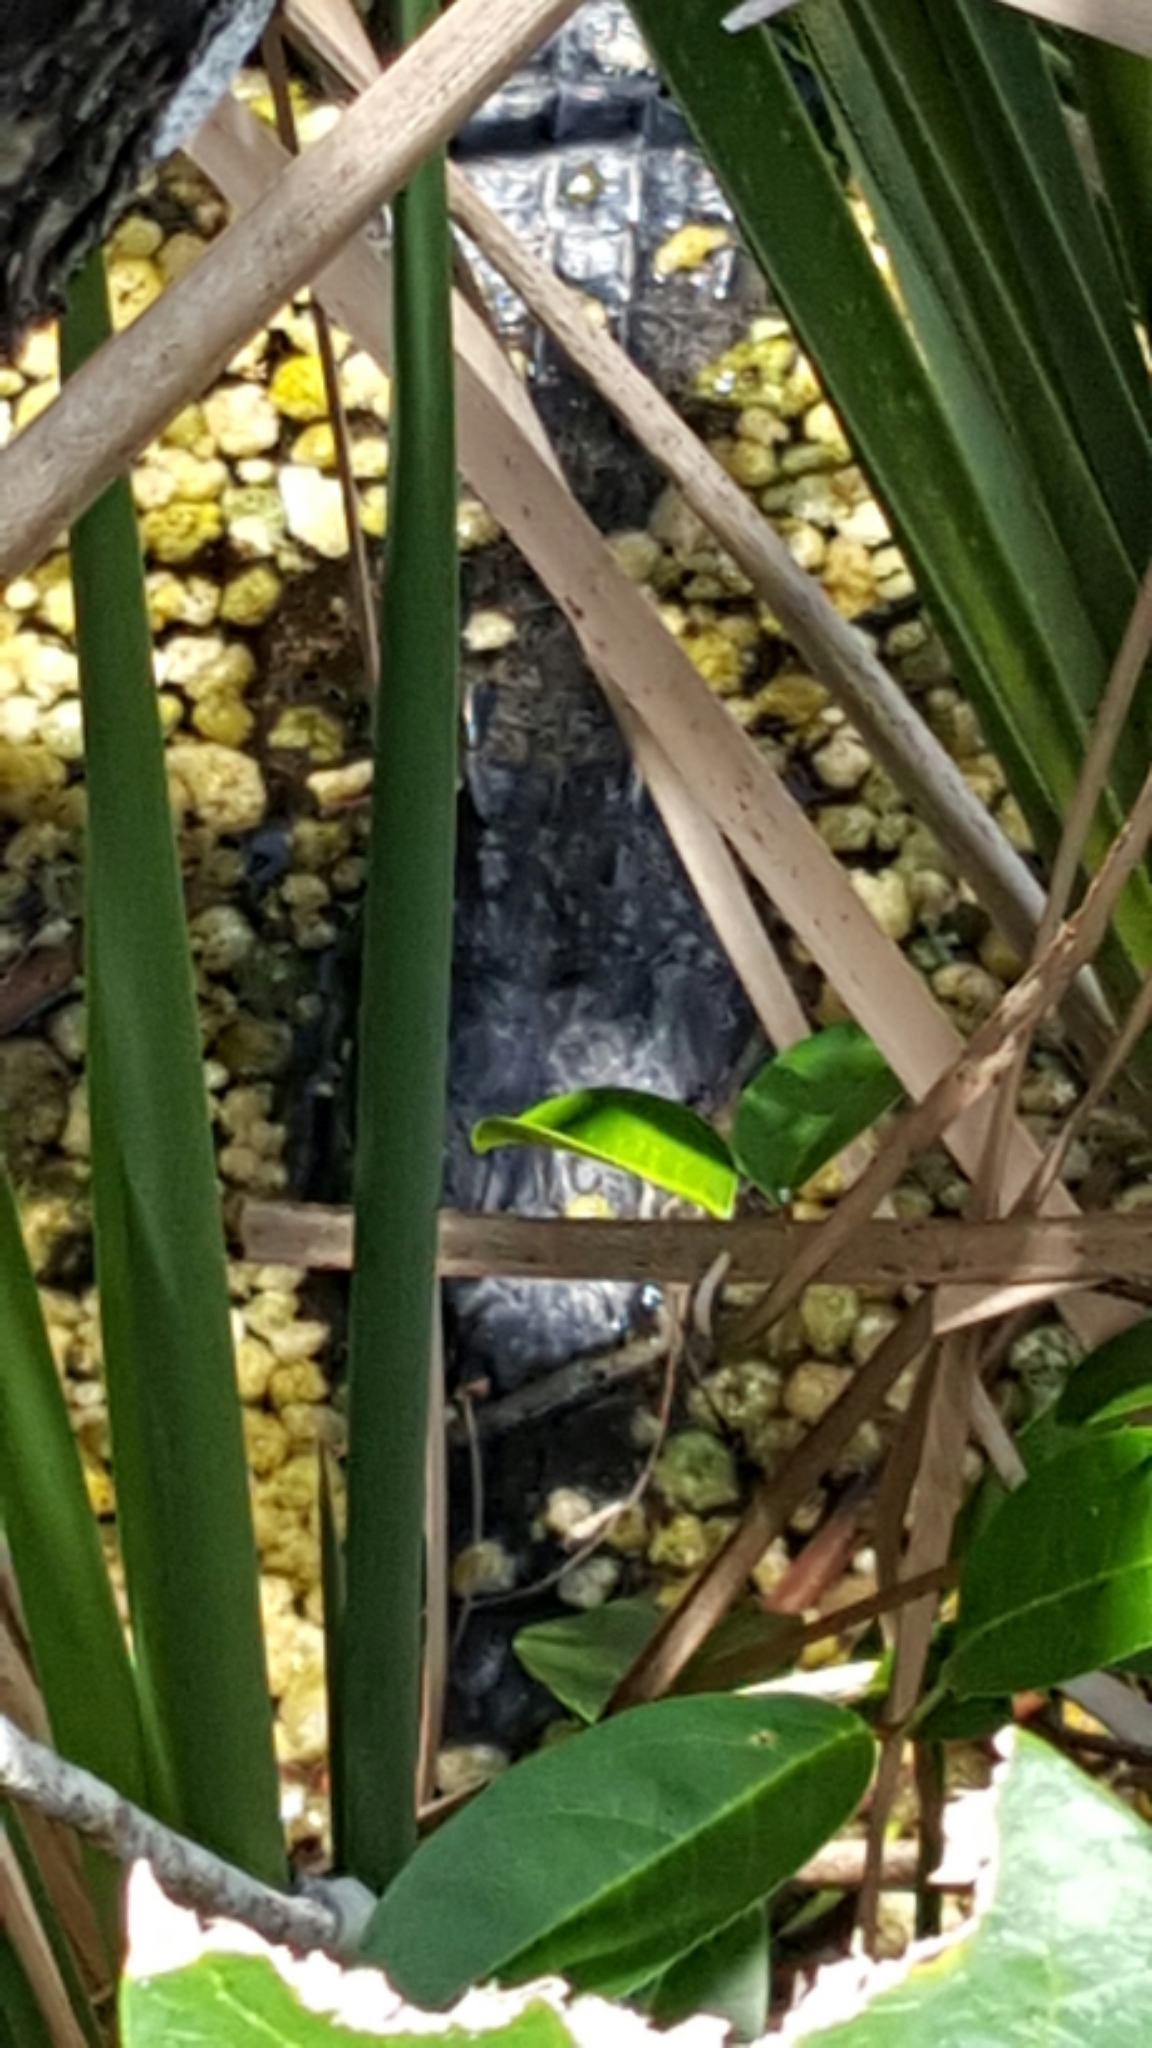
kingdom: Animalia
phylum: Chordata
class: Crocodylia
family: Alligatoridae
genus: Alligator
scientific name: Alligator mississippiensis
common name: American alligator
